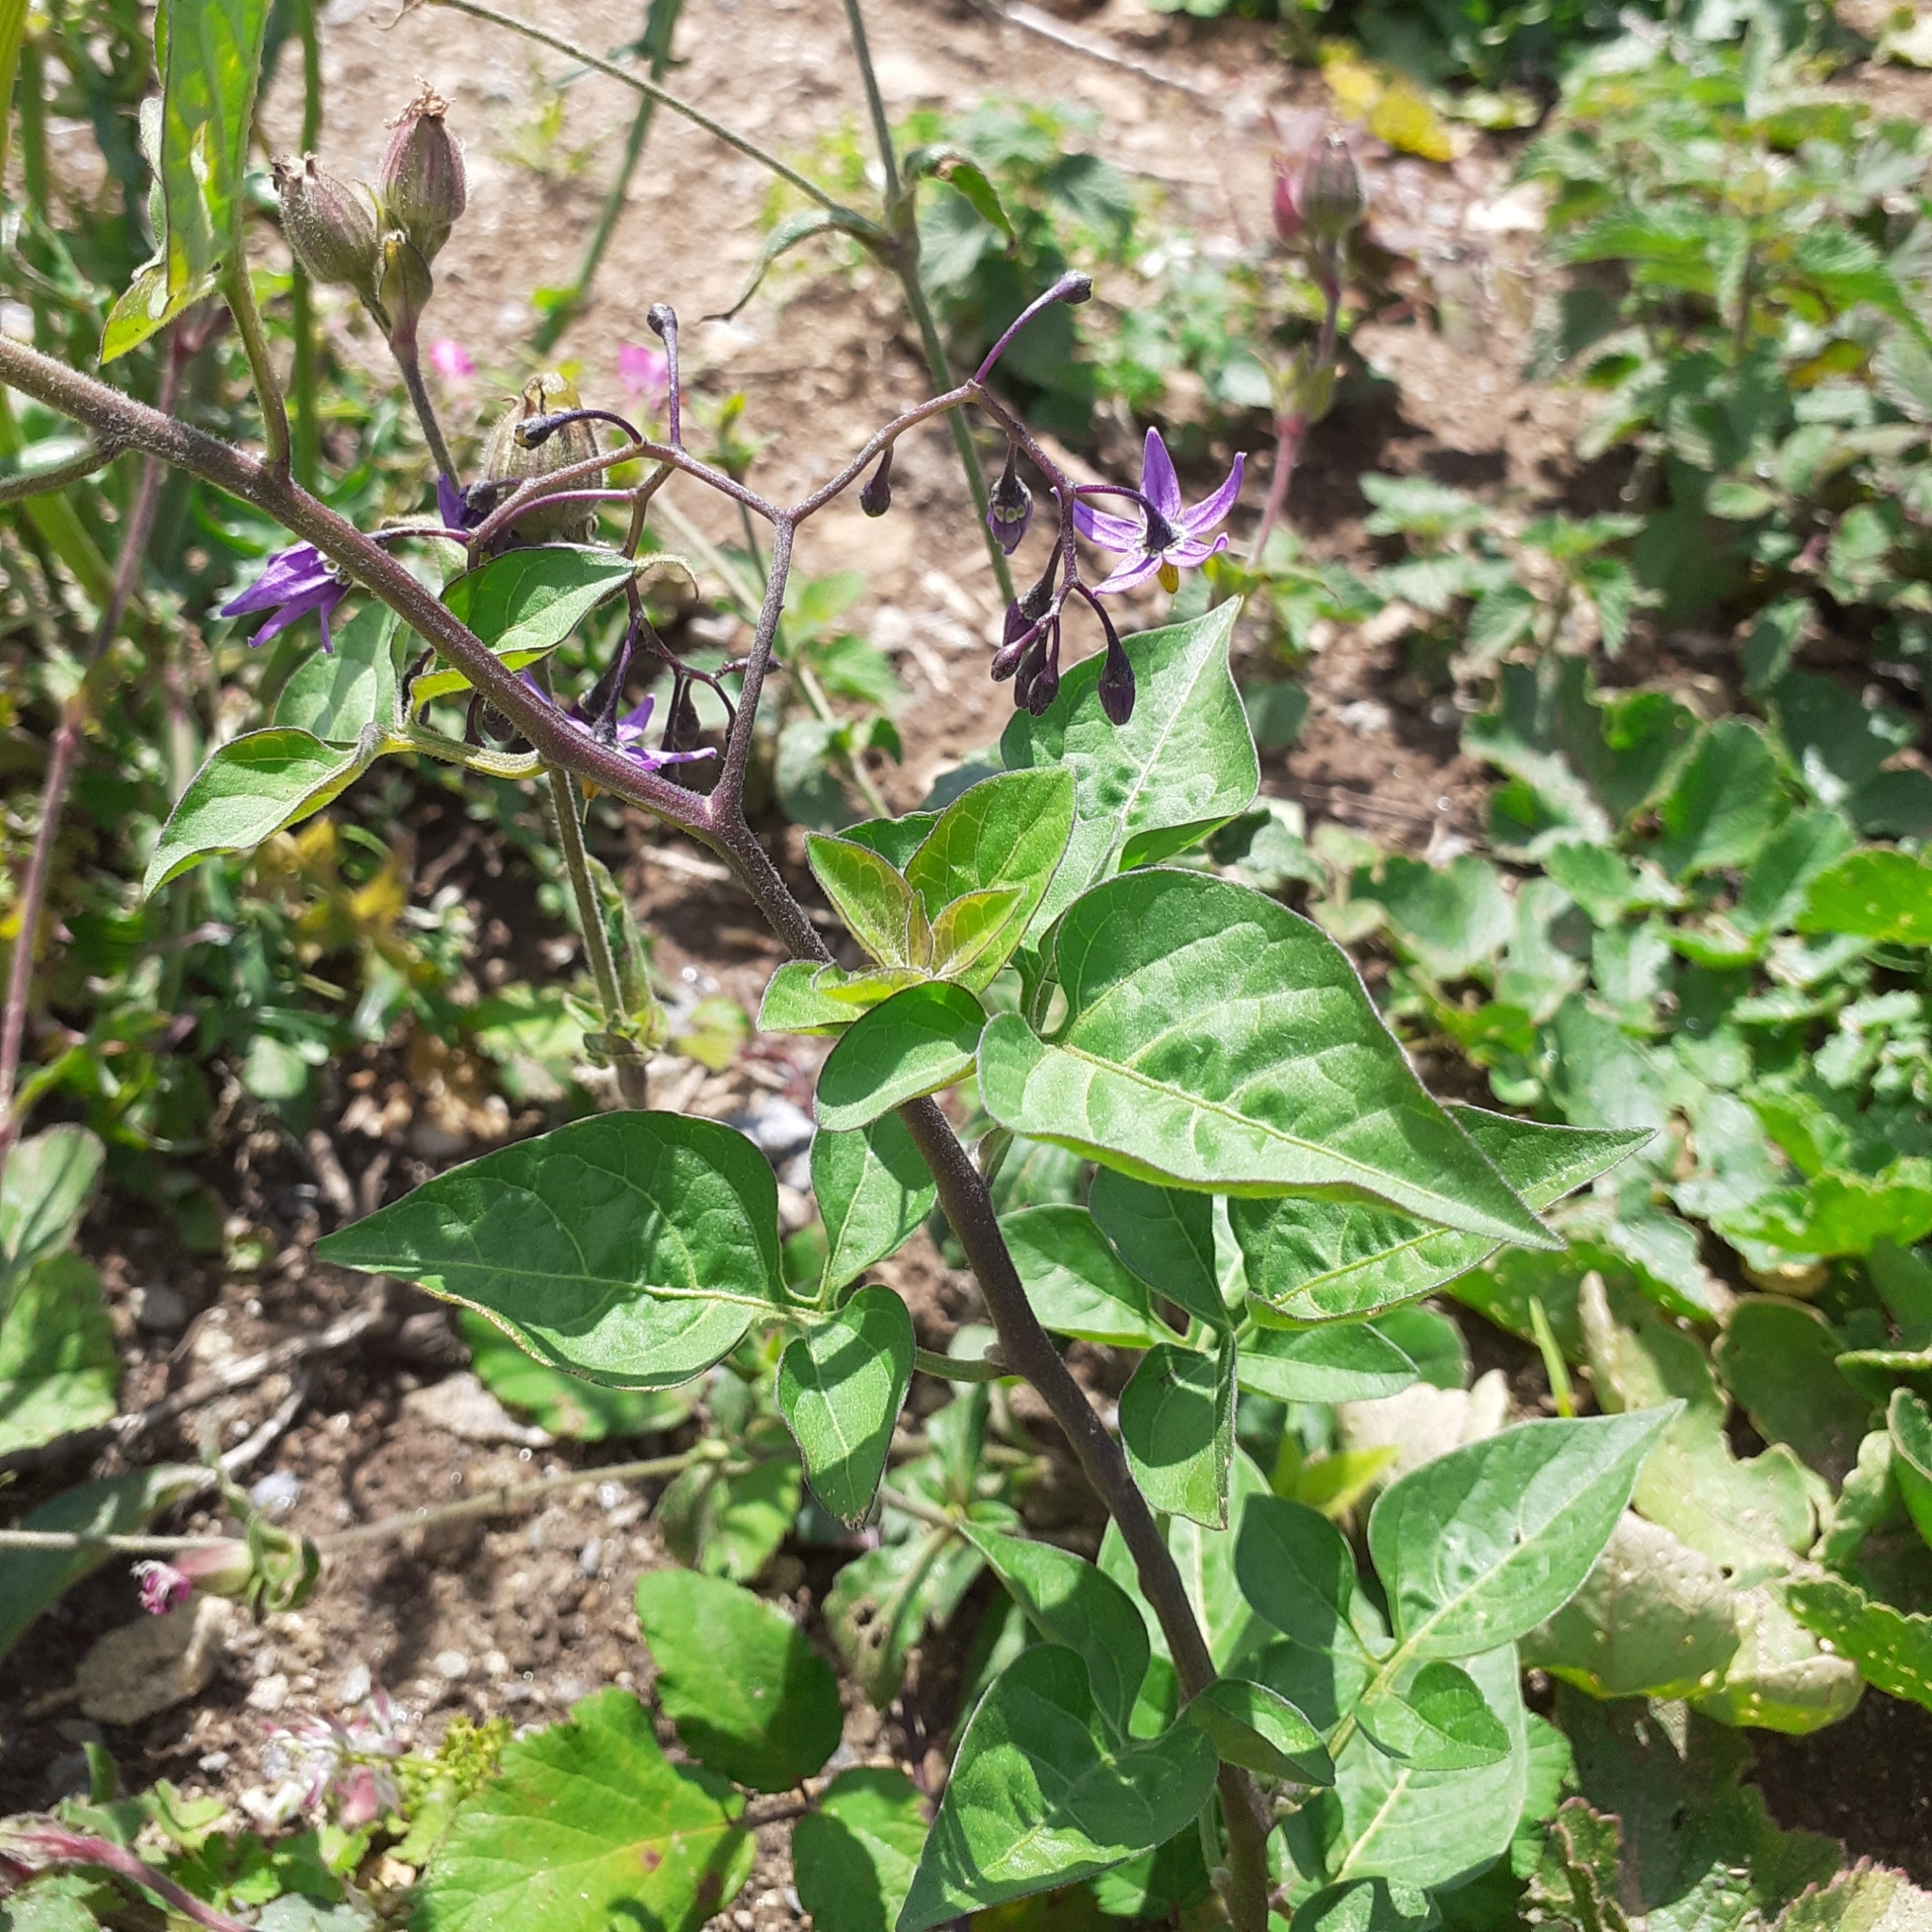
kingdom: Plantae
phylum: Tracheophyta
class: Magnoliopsida
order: Solanales
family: Solanaceae
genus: Solanum
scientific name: Solanum dulcamara
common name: Climbing nightshade
